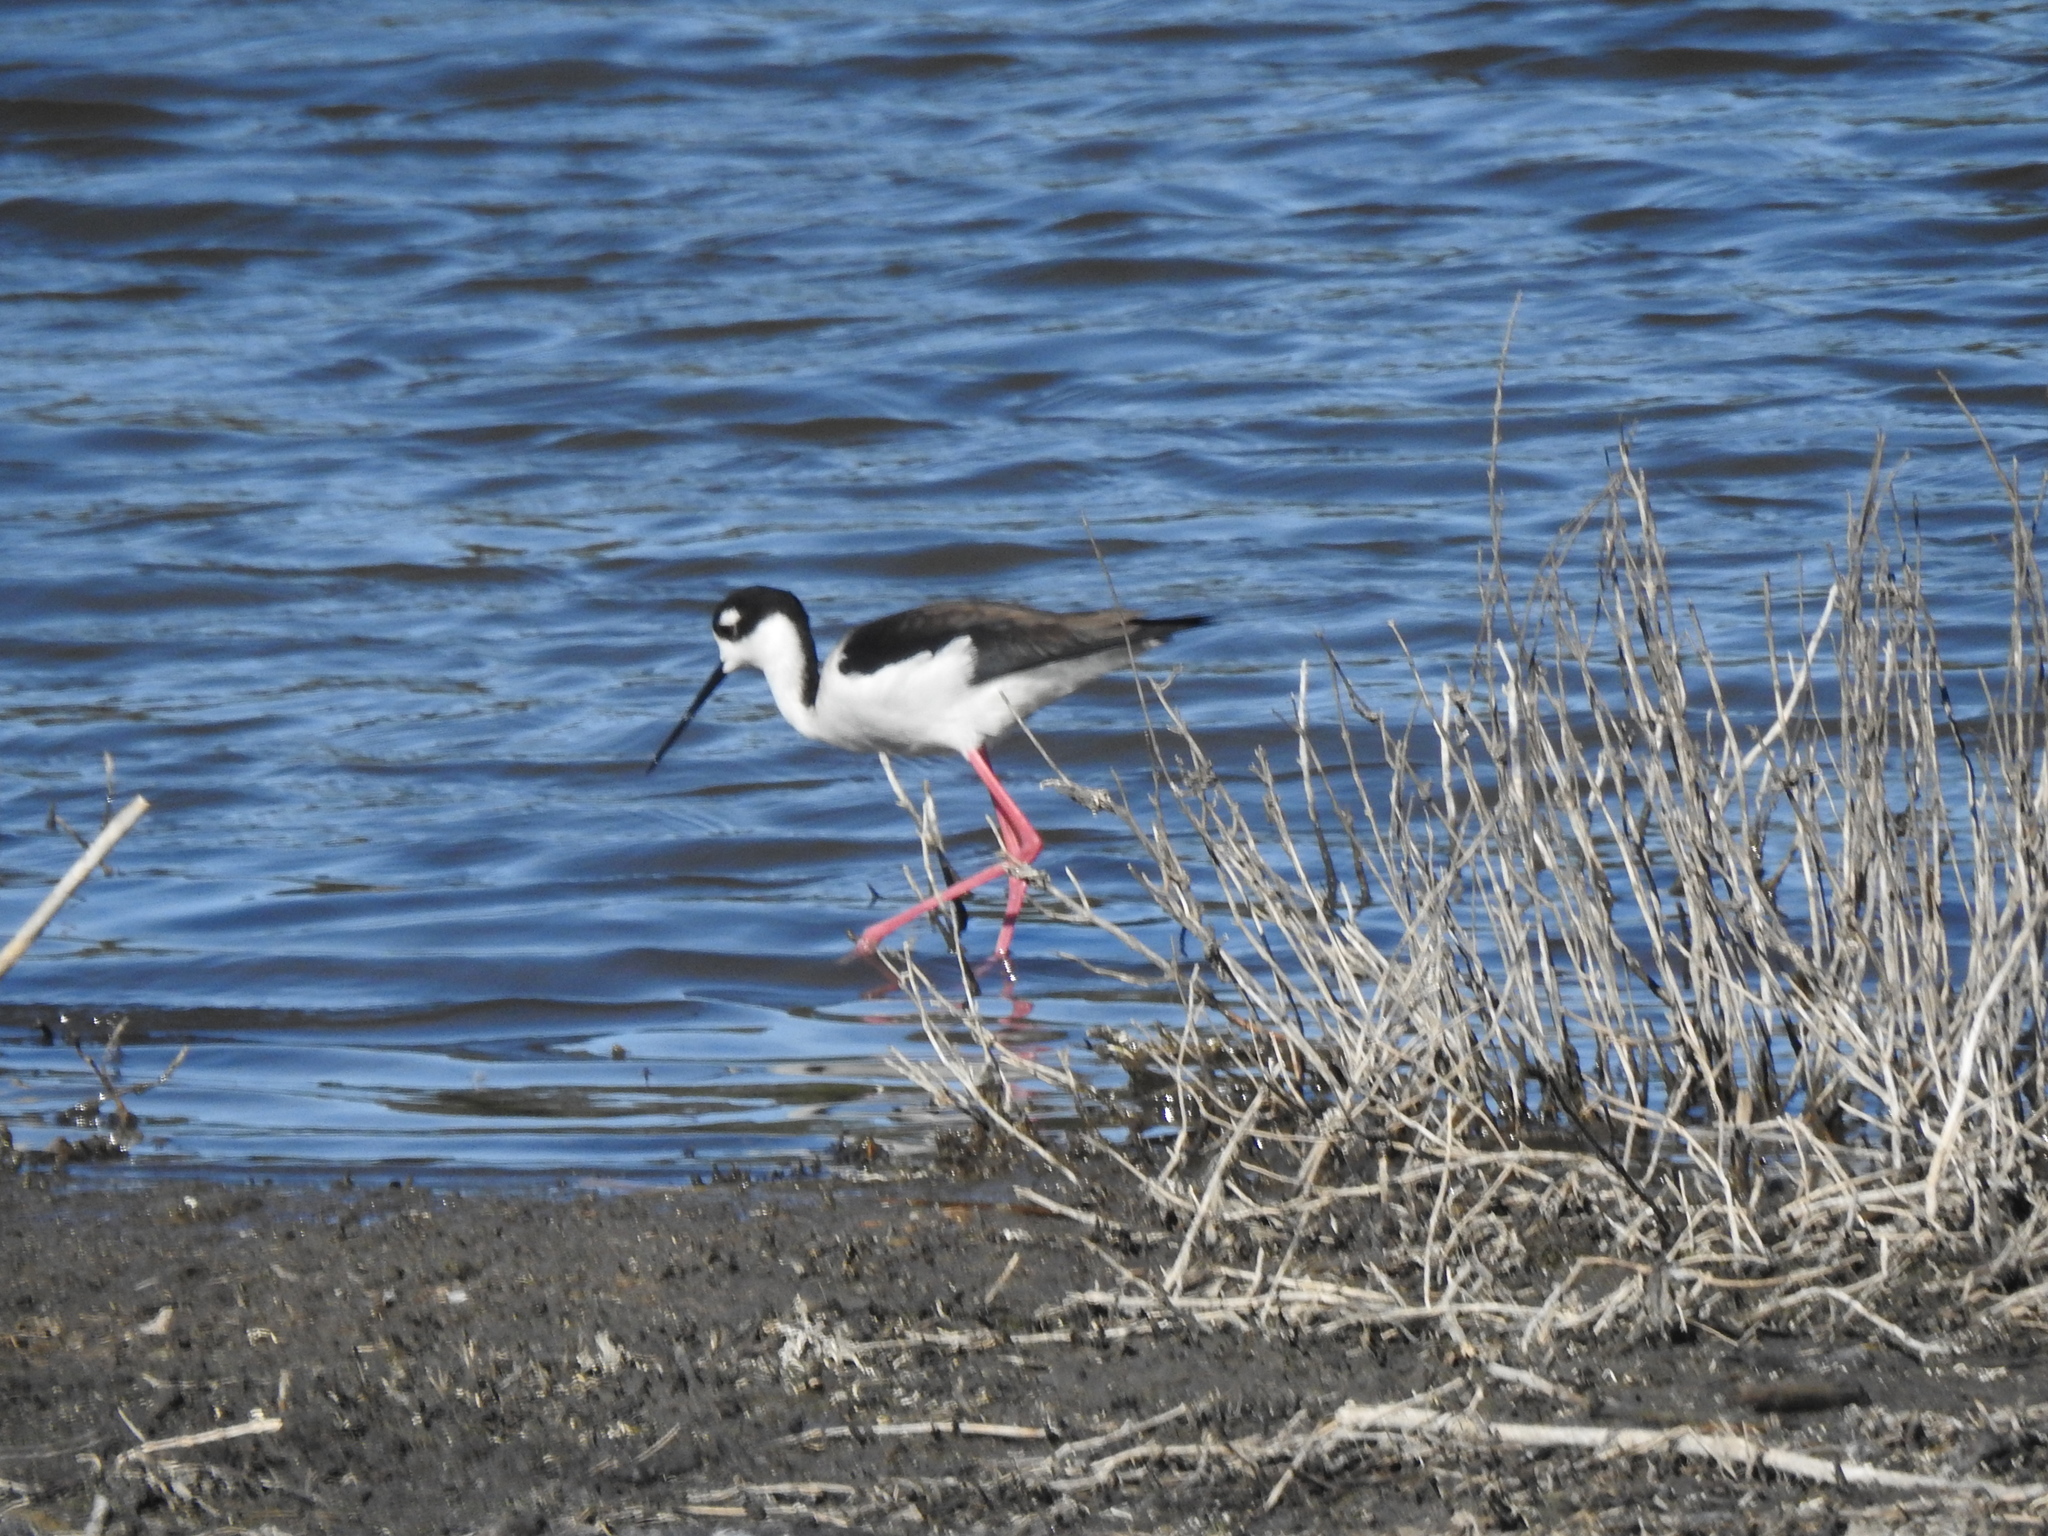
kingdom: Animalia
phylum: Chordata
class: Aves
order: Charadriiformes
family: Recurvirostridae
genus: Himantopus
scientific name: Himantopus mexicanus
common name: Black-necked stilt
